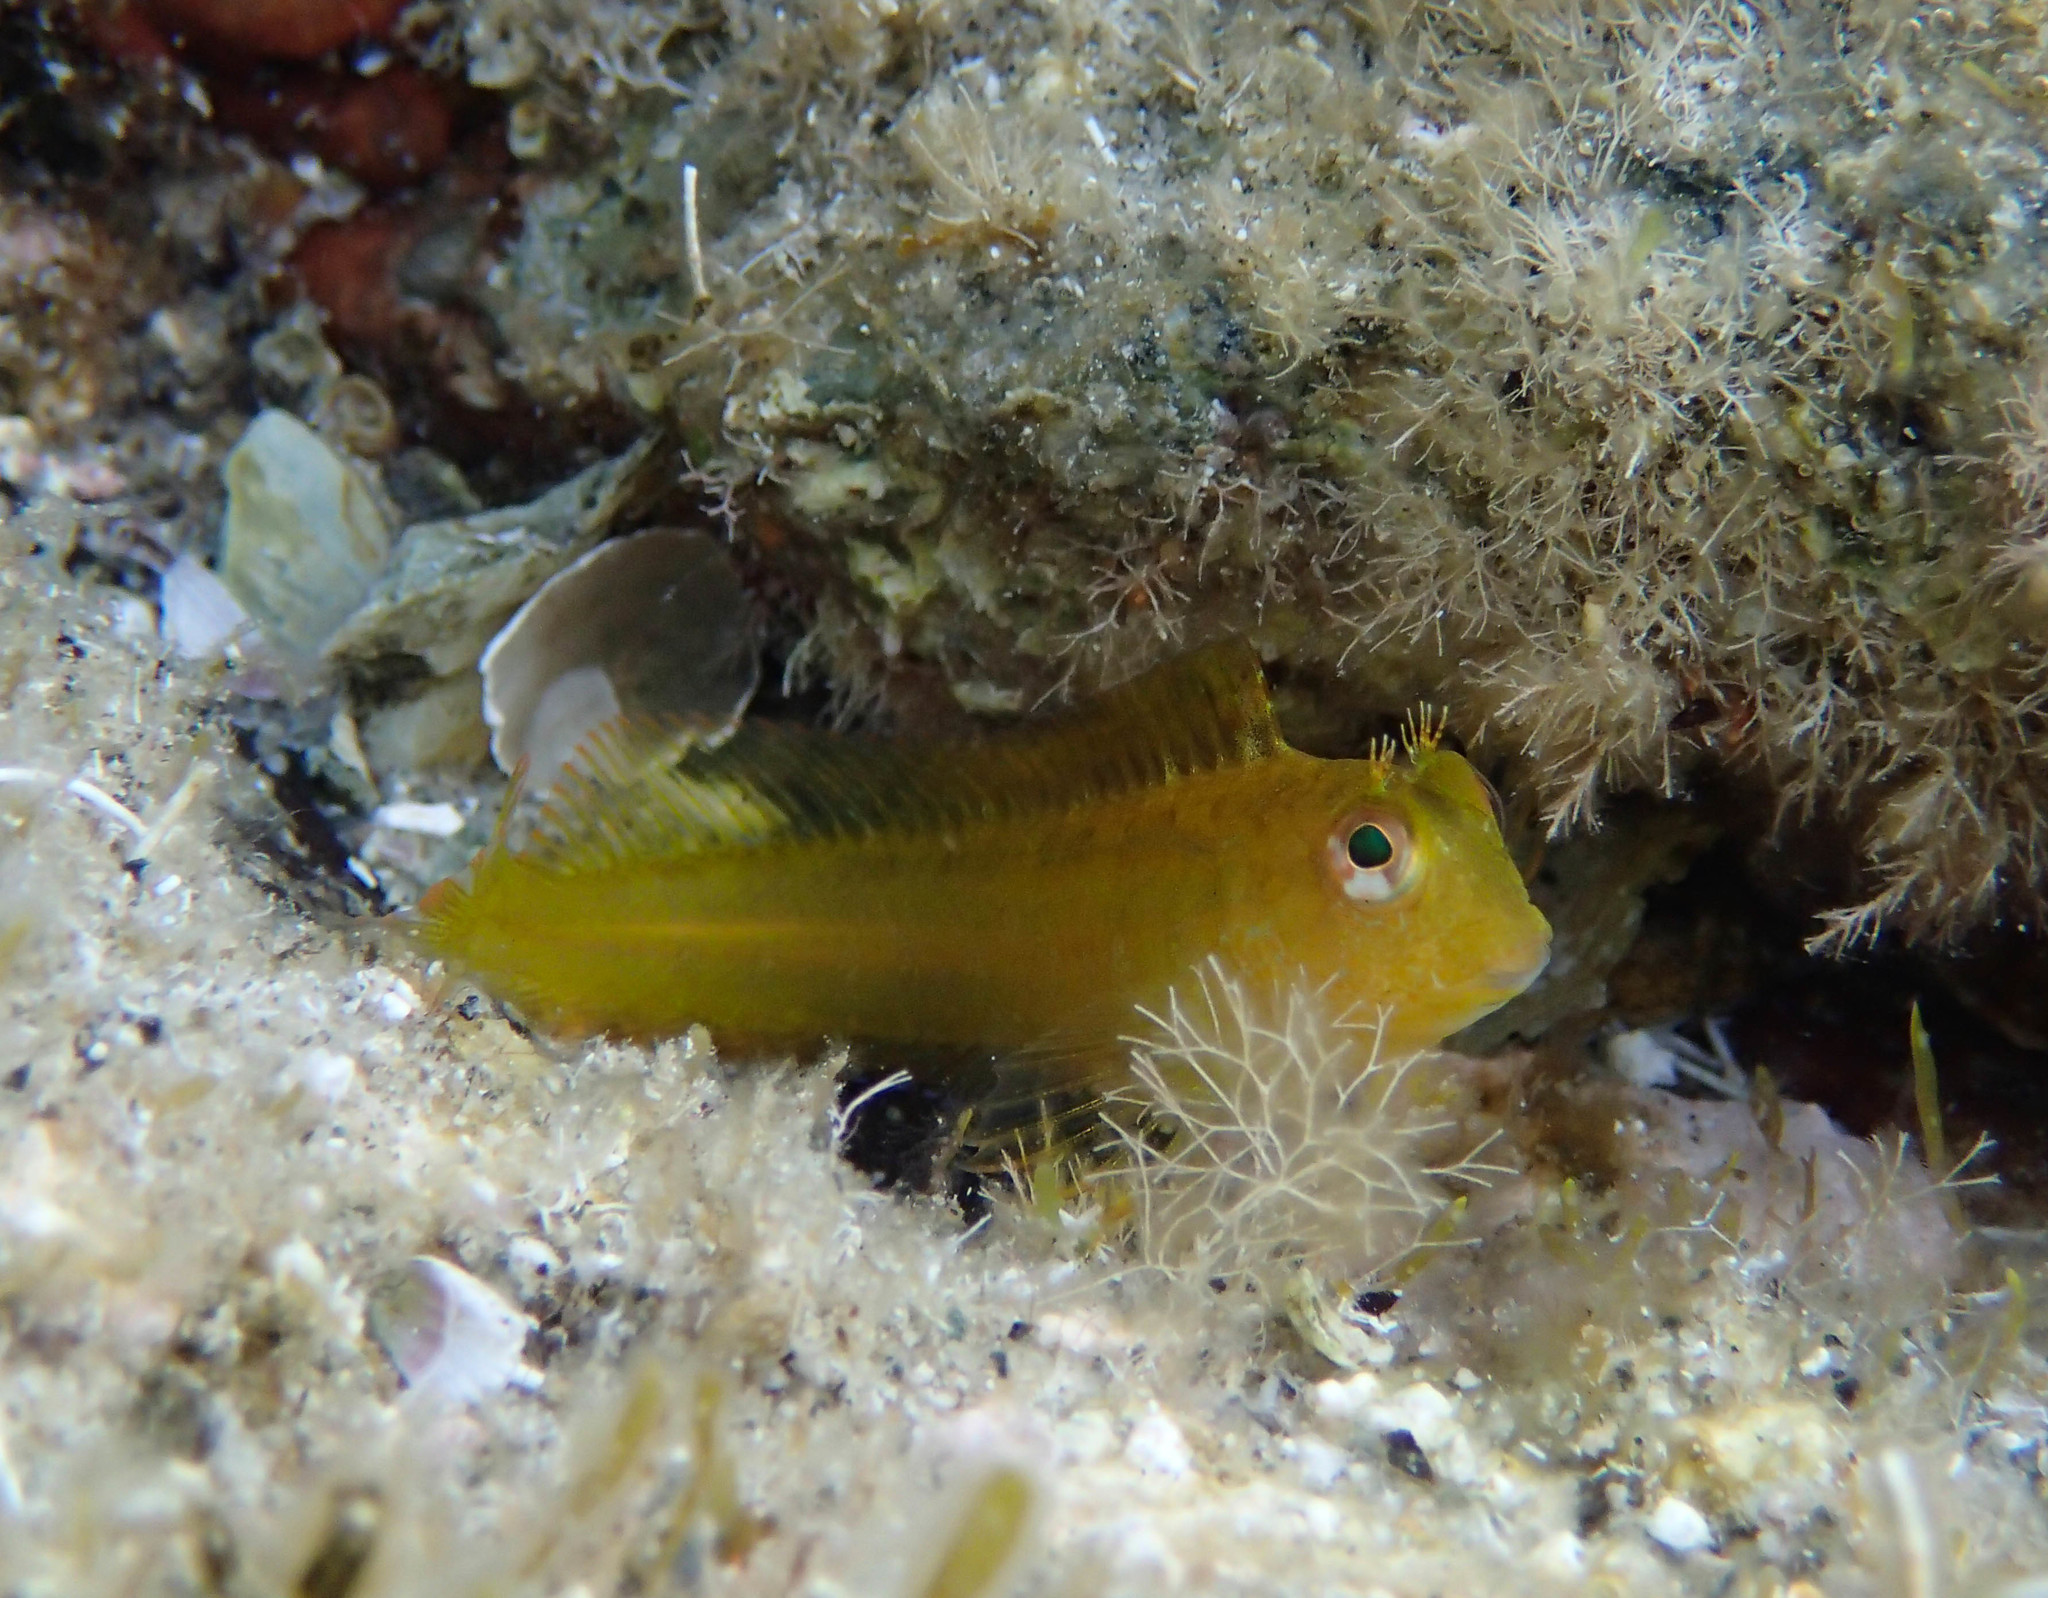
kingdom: Animalia
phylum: Chordata
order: Perciformes
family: Blenniidae
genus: Parablennius
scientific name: Parablennius pilicornis
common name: Ringneck blenny
